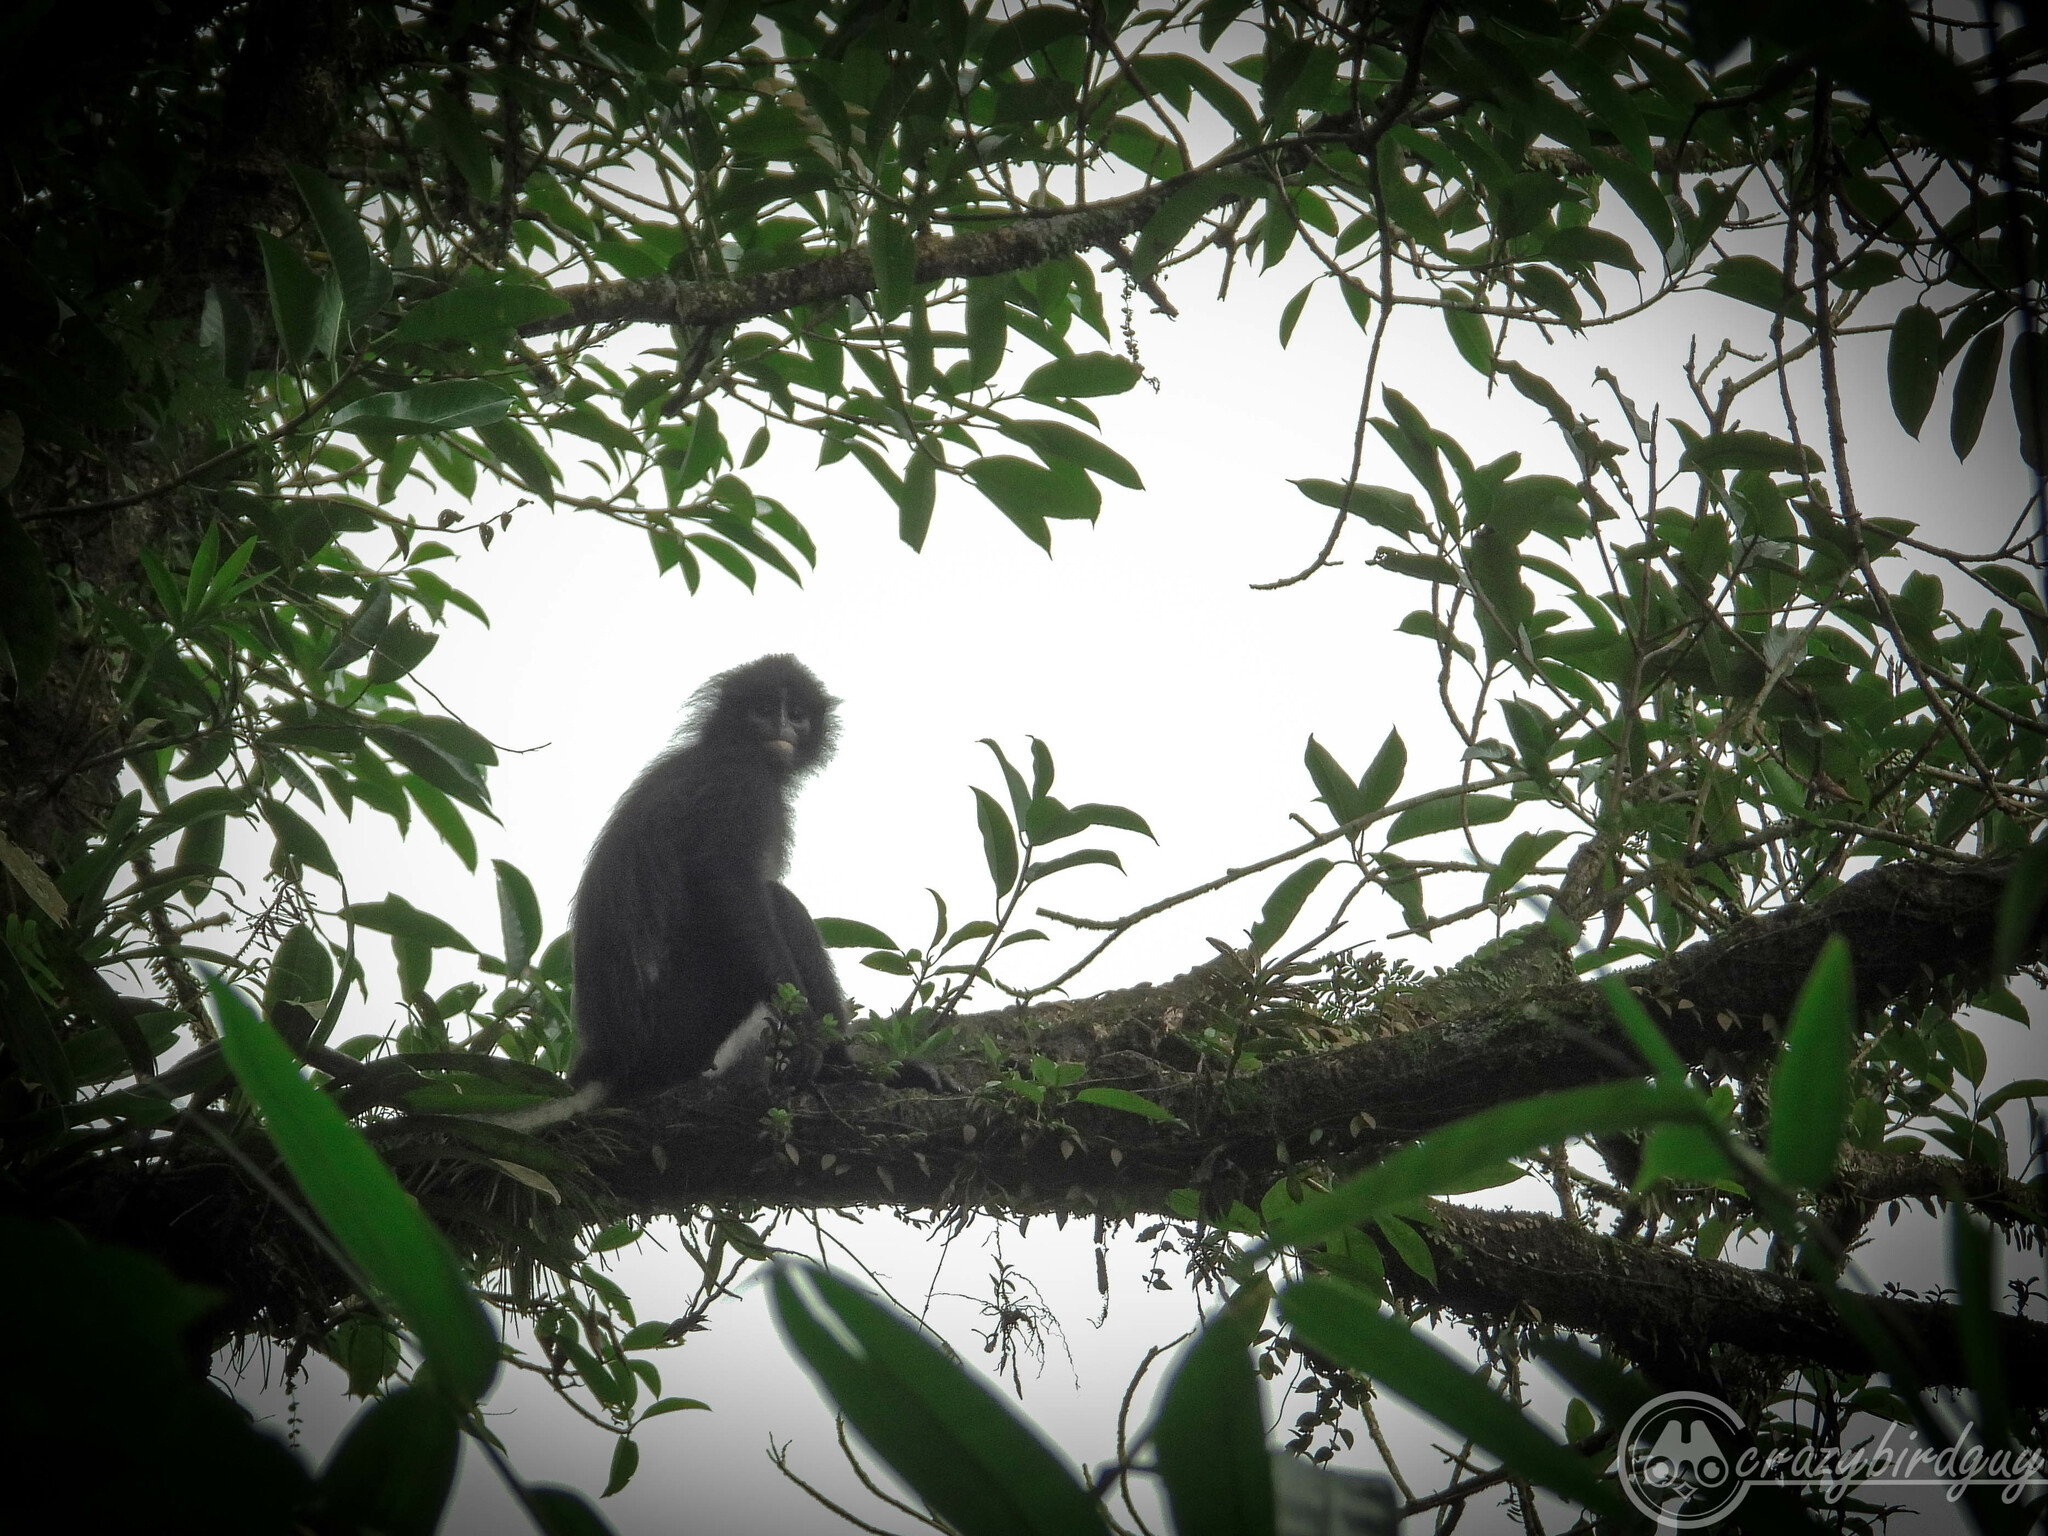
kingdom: Animalia
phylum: Chordata
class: Mammalia
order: Primates
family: Cercopithecidae
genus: Presbytis
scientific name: Presbytis comata
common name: Javan surili
